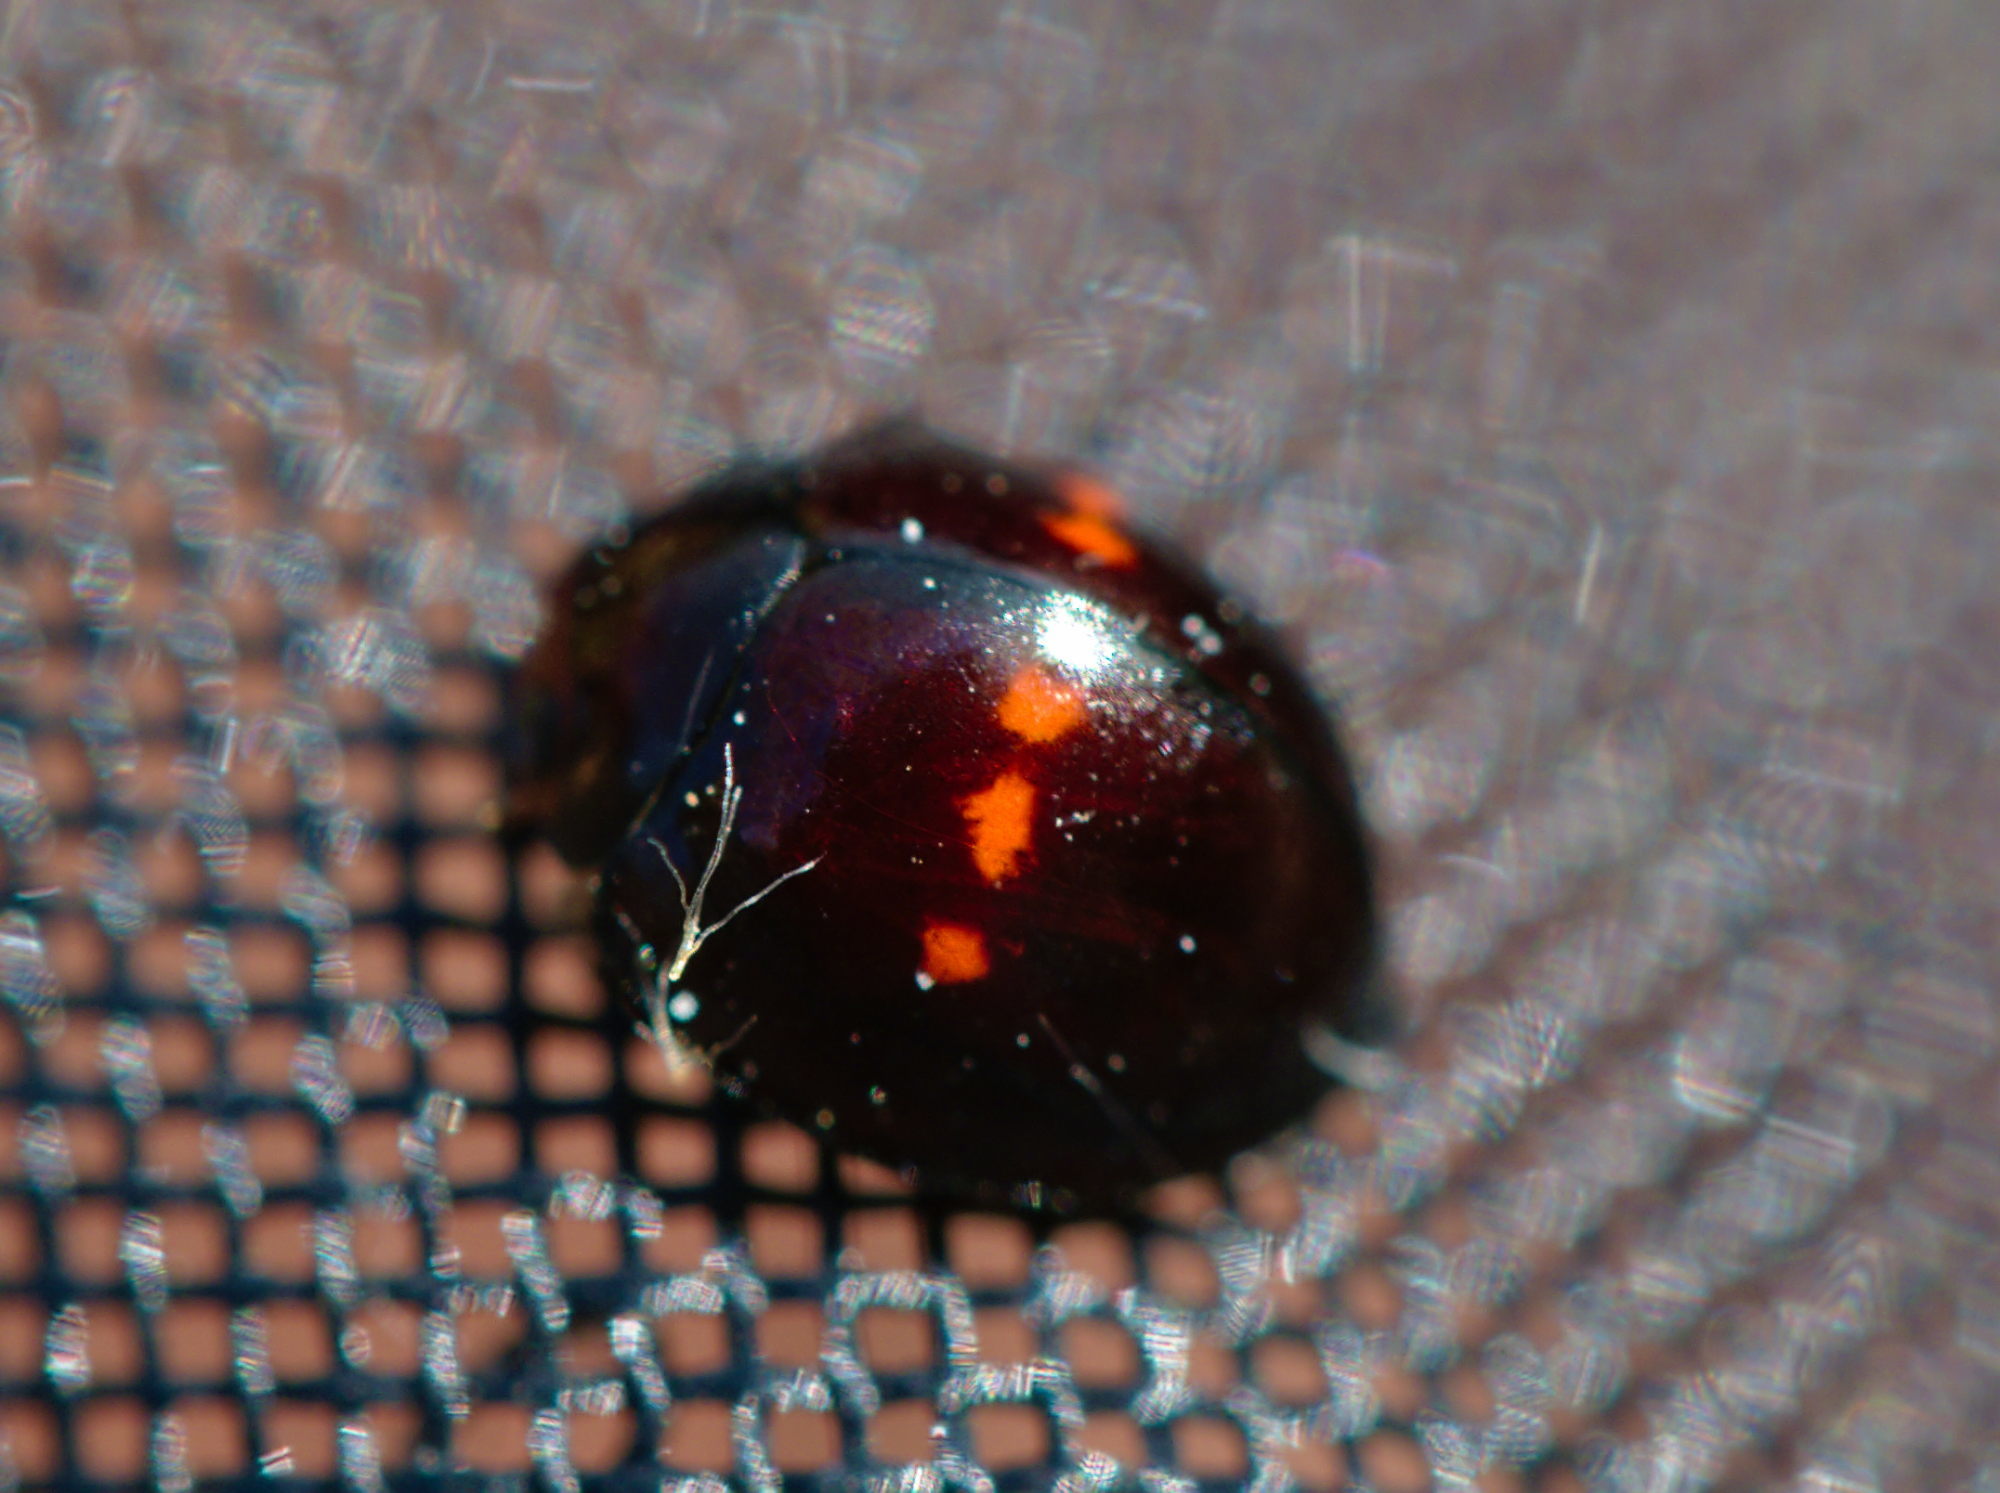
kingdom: Animalia
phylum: Arthropoda
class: Insecta
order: Coleoptera
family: Coccinellidae
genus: Chilocorus
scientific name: Chilocorus bipustulatus
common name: Heather ladybird
